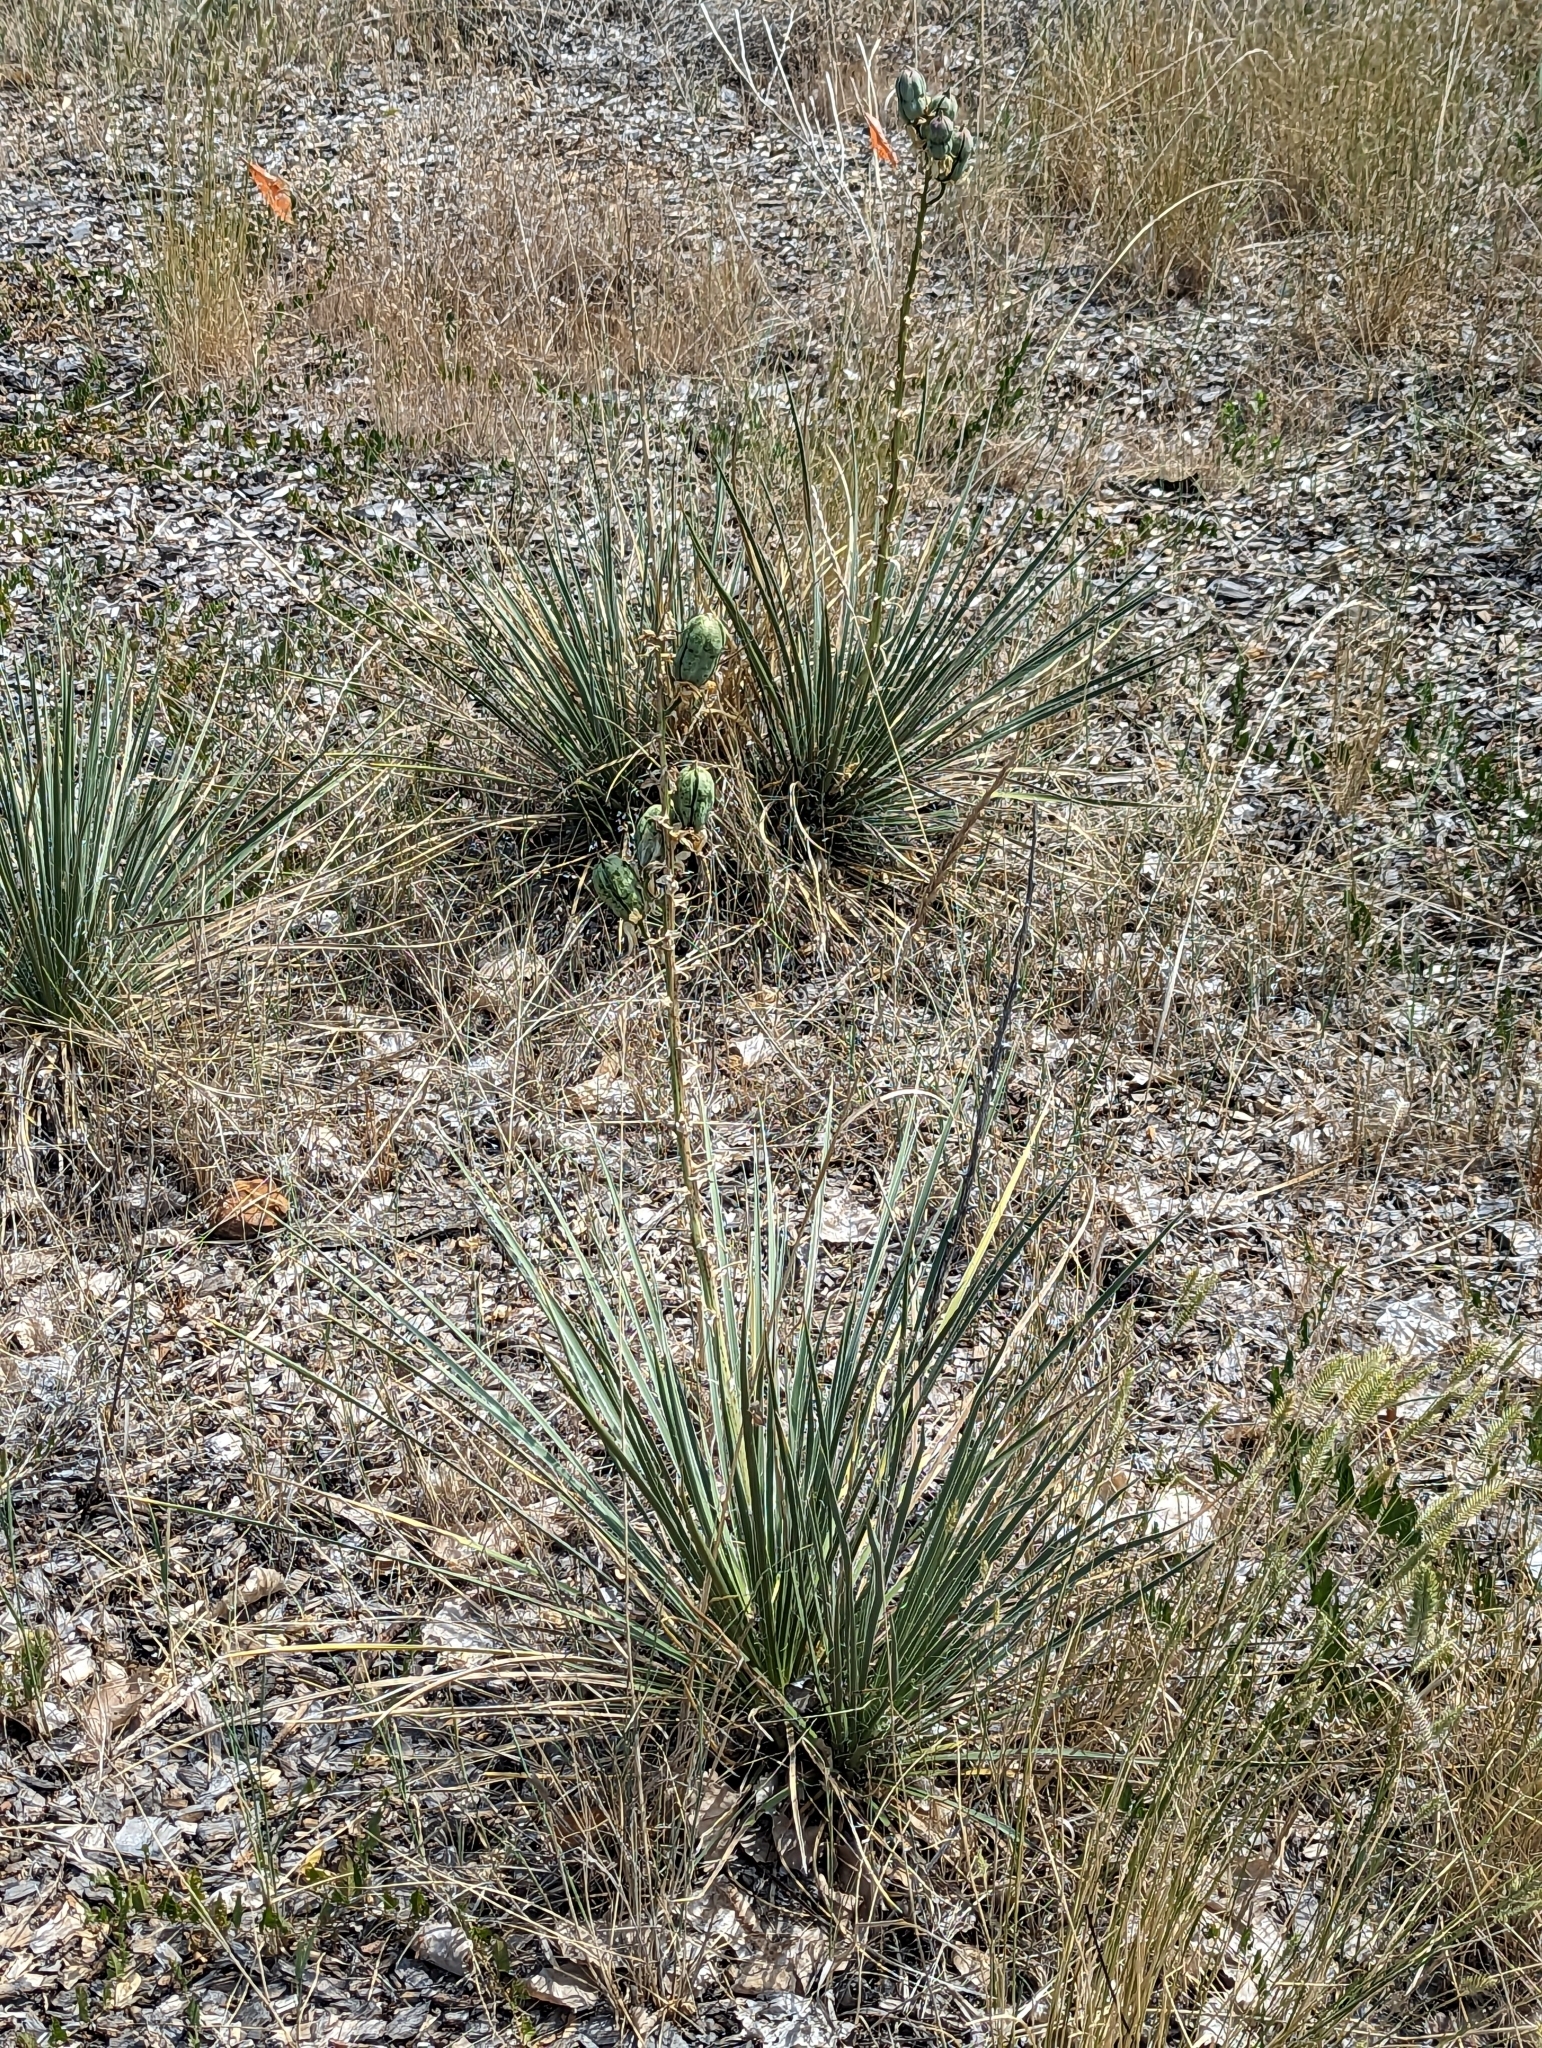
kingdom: Plantae
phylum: Tracheophyta
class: Liliopsida
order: Asparagales
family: Asparagaceae
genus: Yucca
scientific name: Yucca glauca
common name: Great plains yucca
